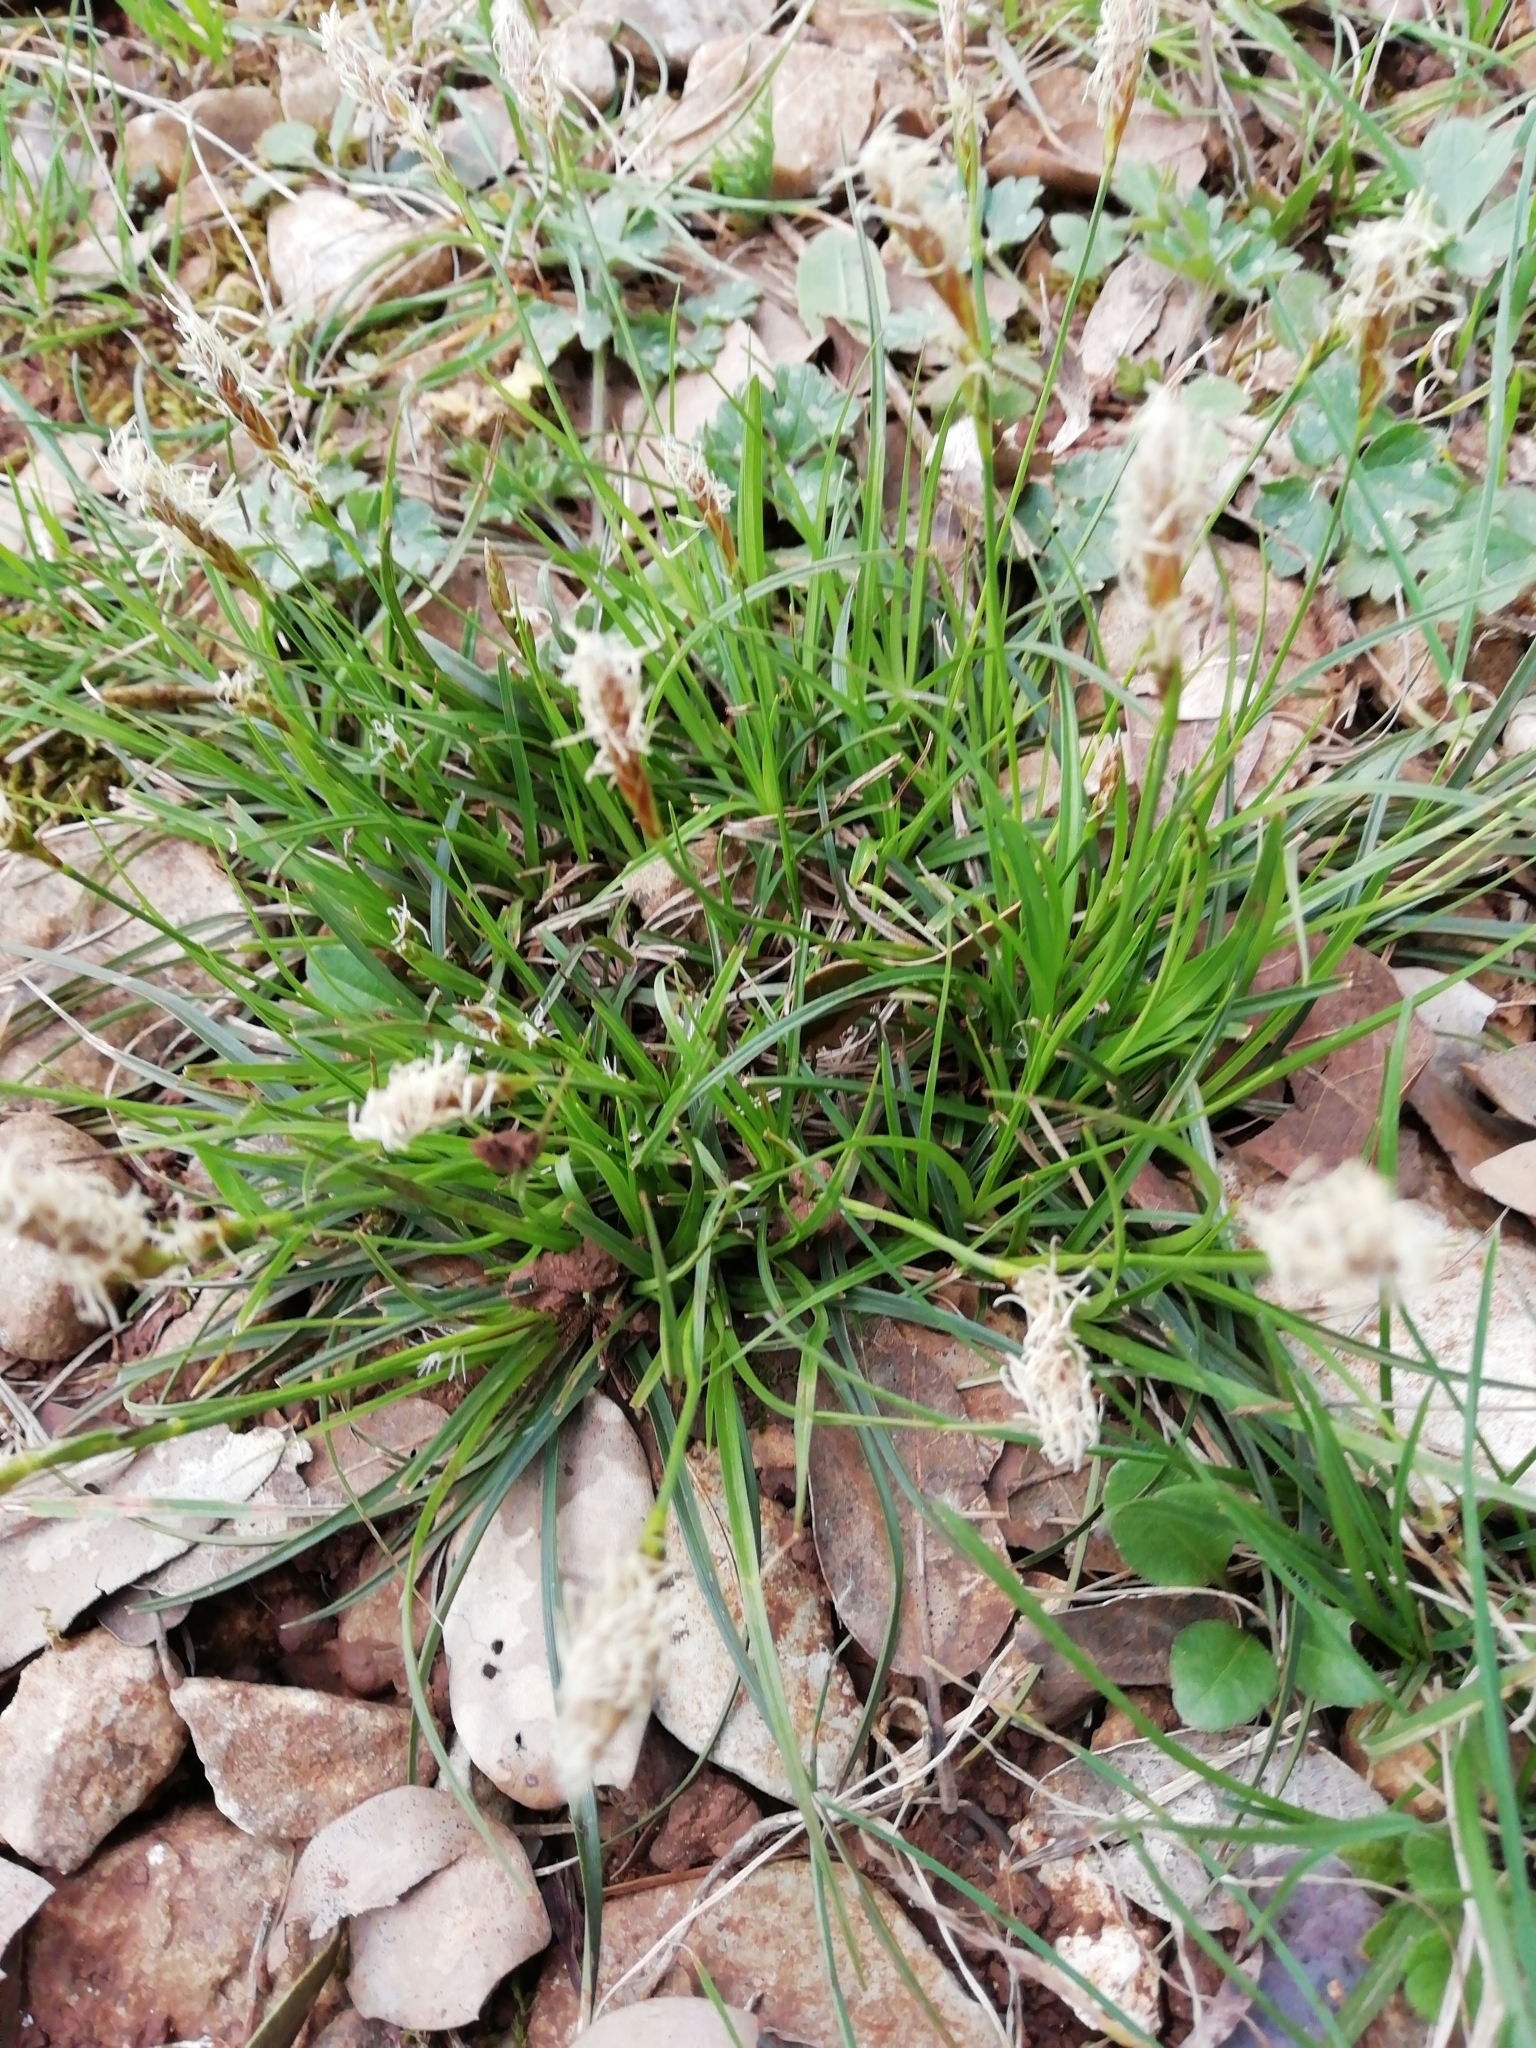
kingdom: Plantae
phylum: Tracheophyta
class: Liliopsida
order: Poales
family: Cyperaceae
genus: Carex
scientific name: Carex halleriana
